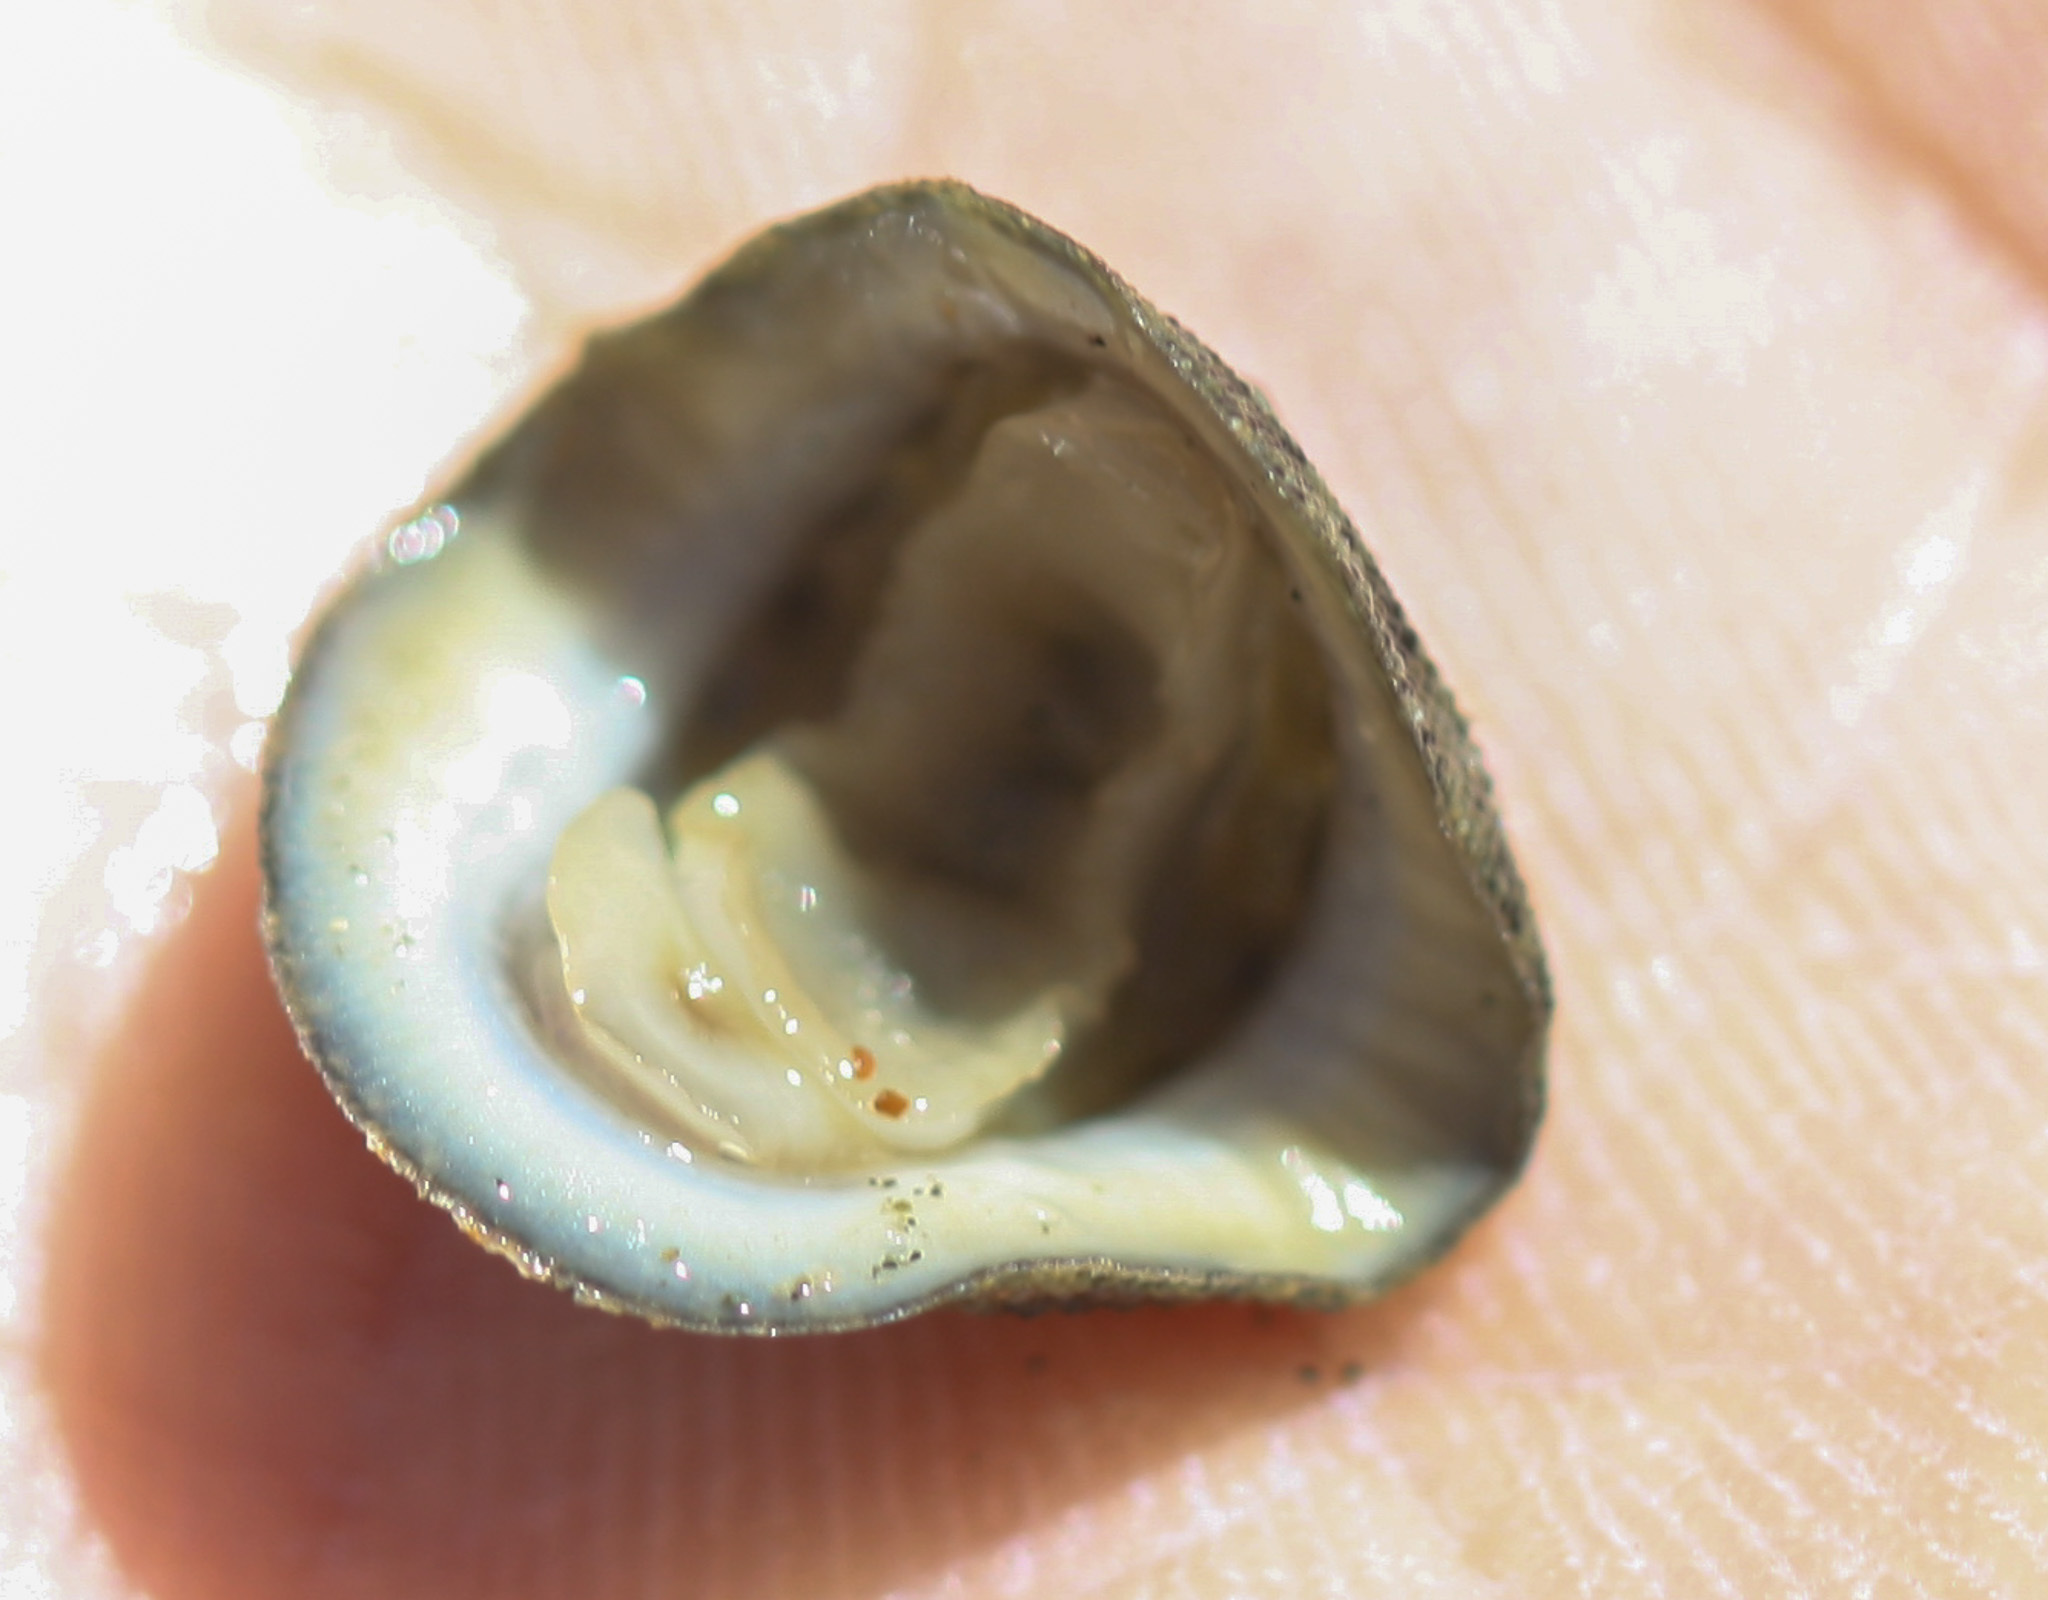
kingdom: Animalia
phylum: Mollusca
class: Polyplacophora
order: Chitonida
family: Chitonidae
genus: Chiton
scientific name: Chiton stokesii
